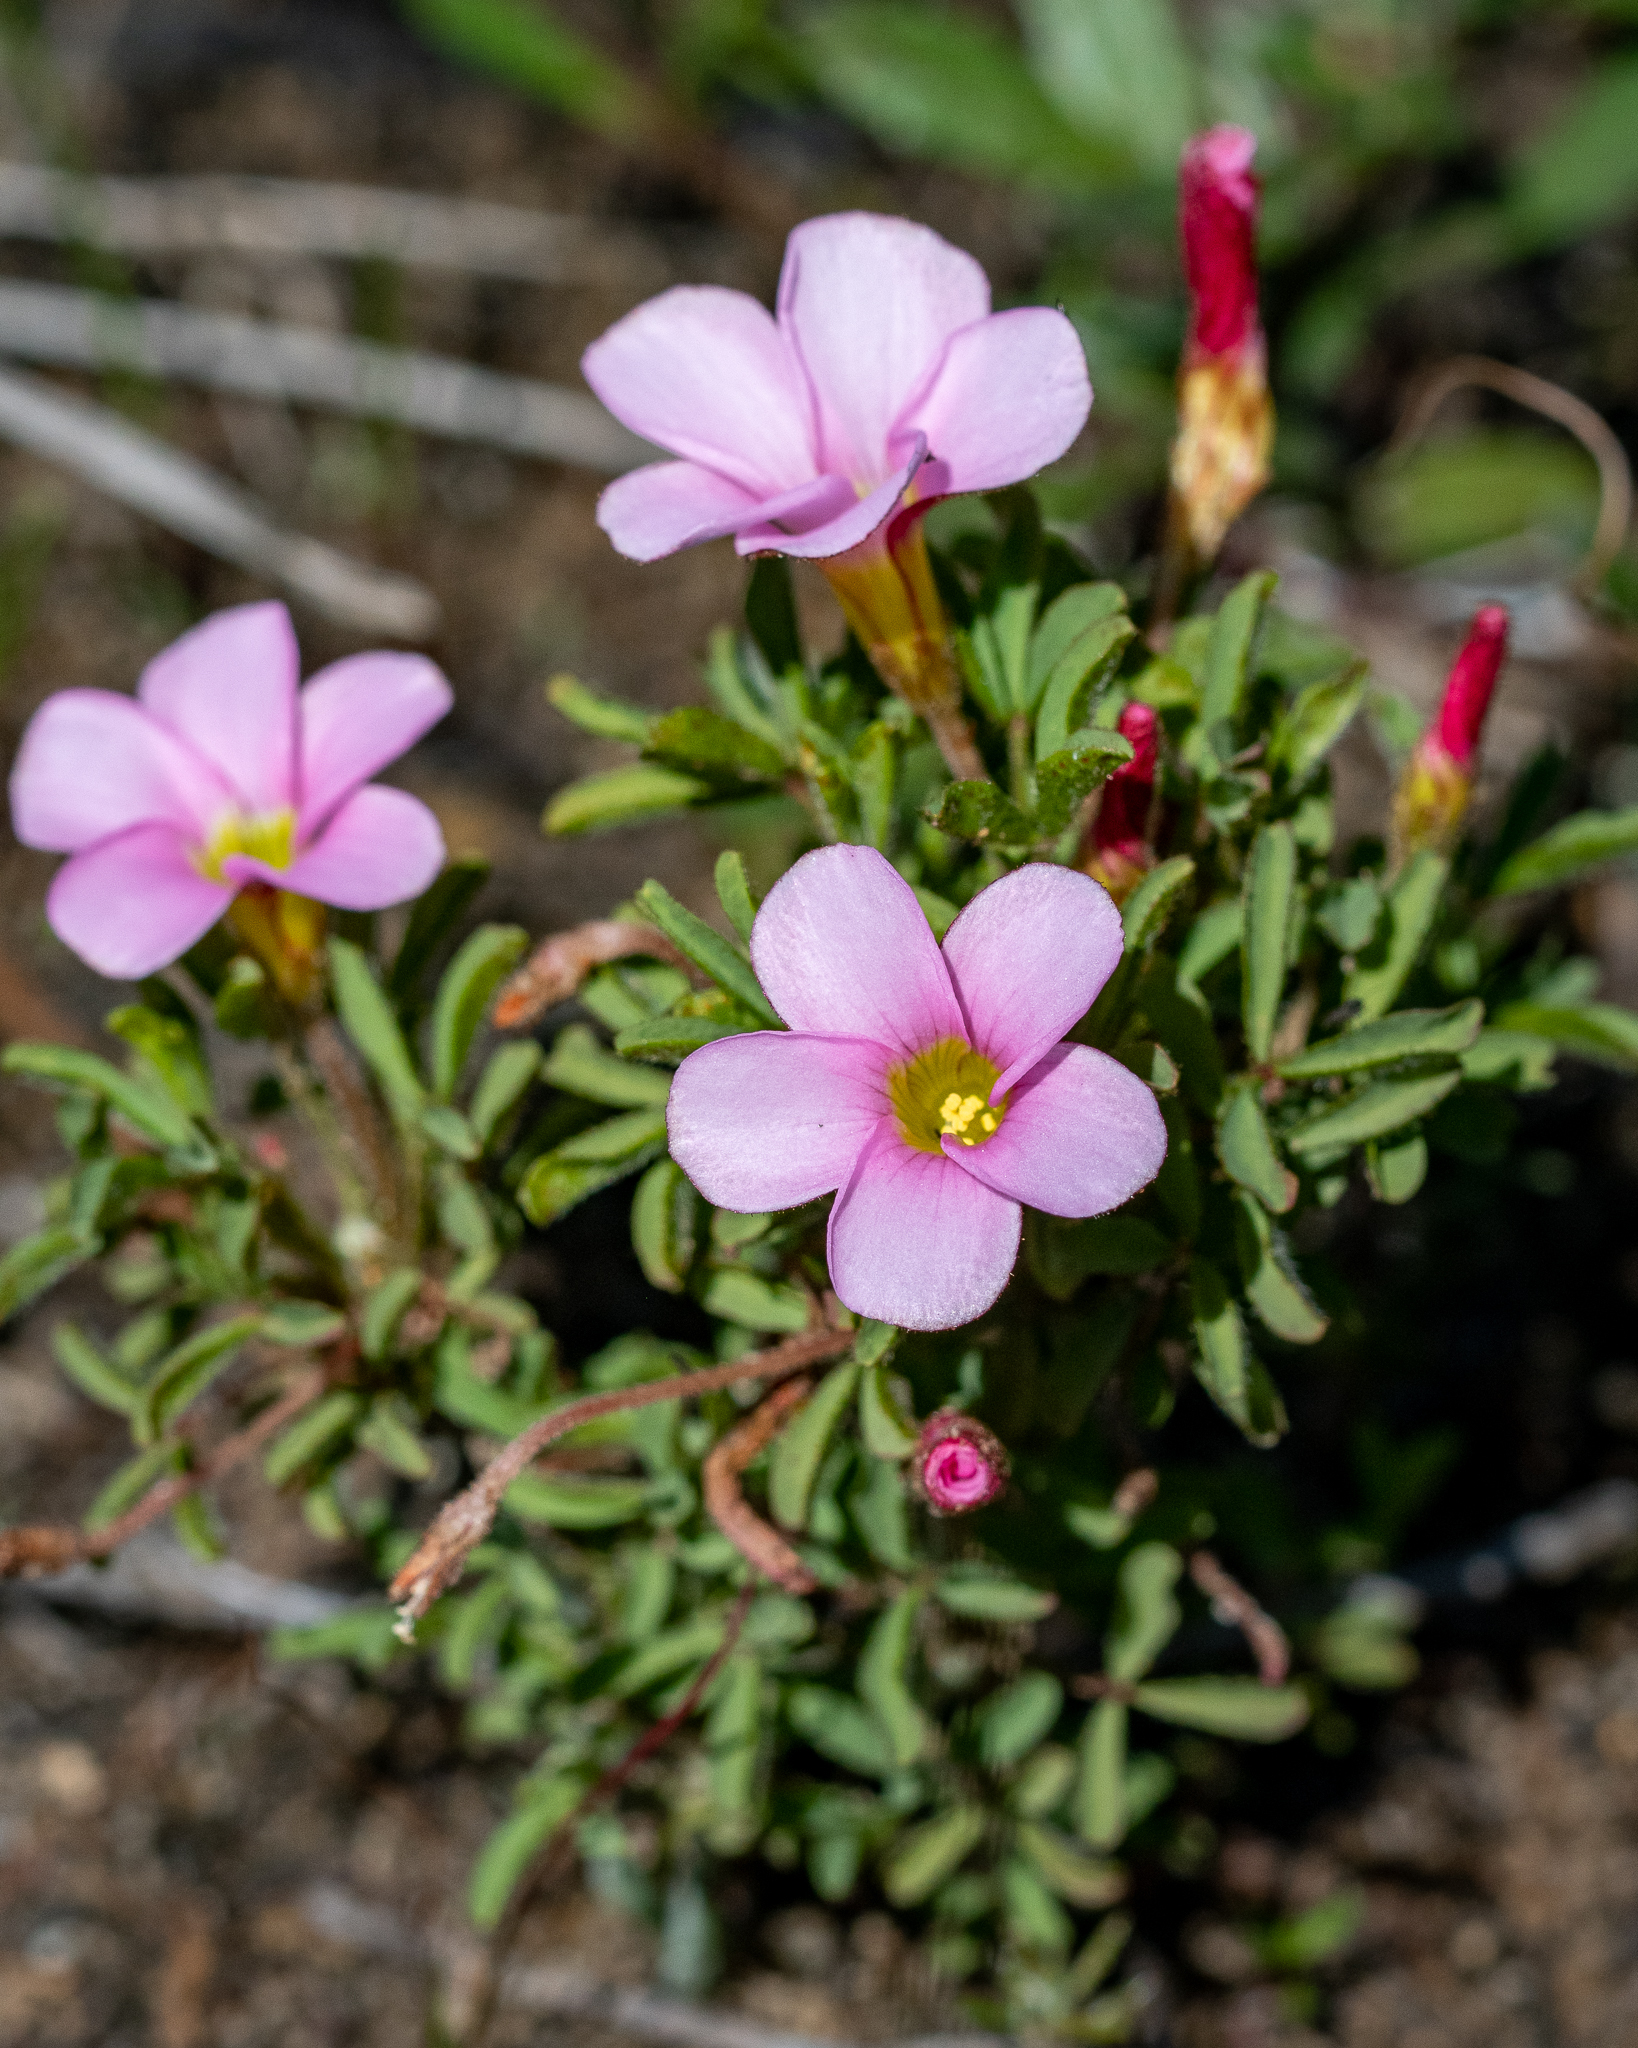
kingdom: Plantae
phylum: Tracheophyta
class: Magnoliopsida
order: Oxalidales
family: Oxalidaceae
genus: Oxalis
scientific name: Oxalis multicaulis
